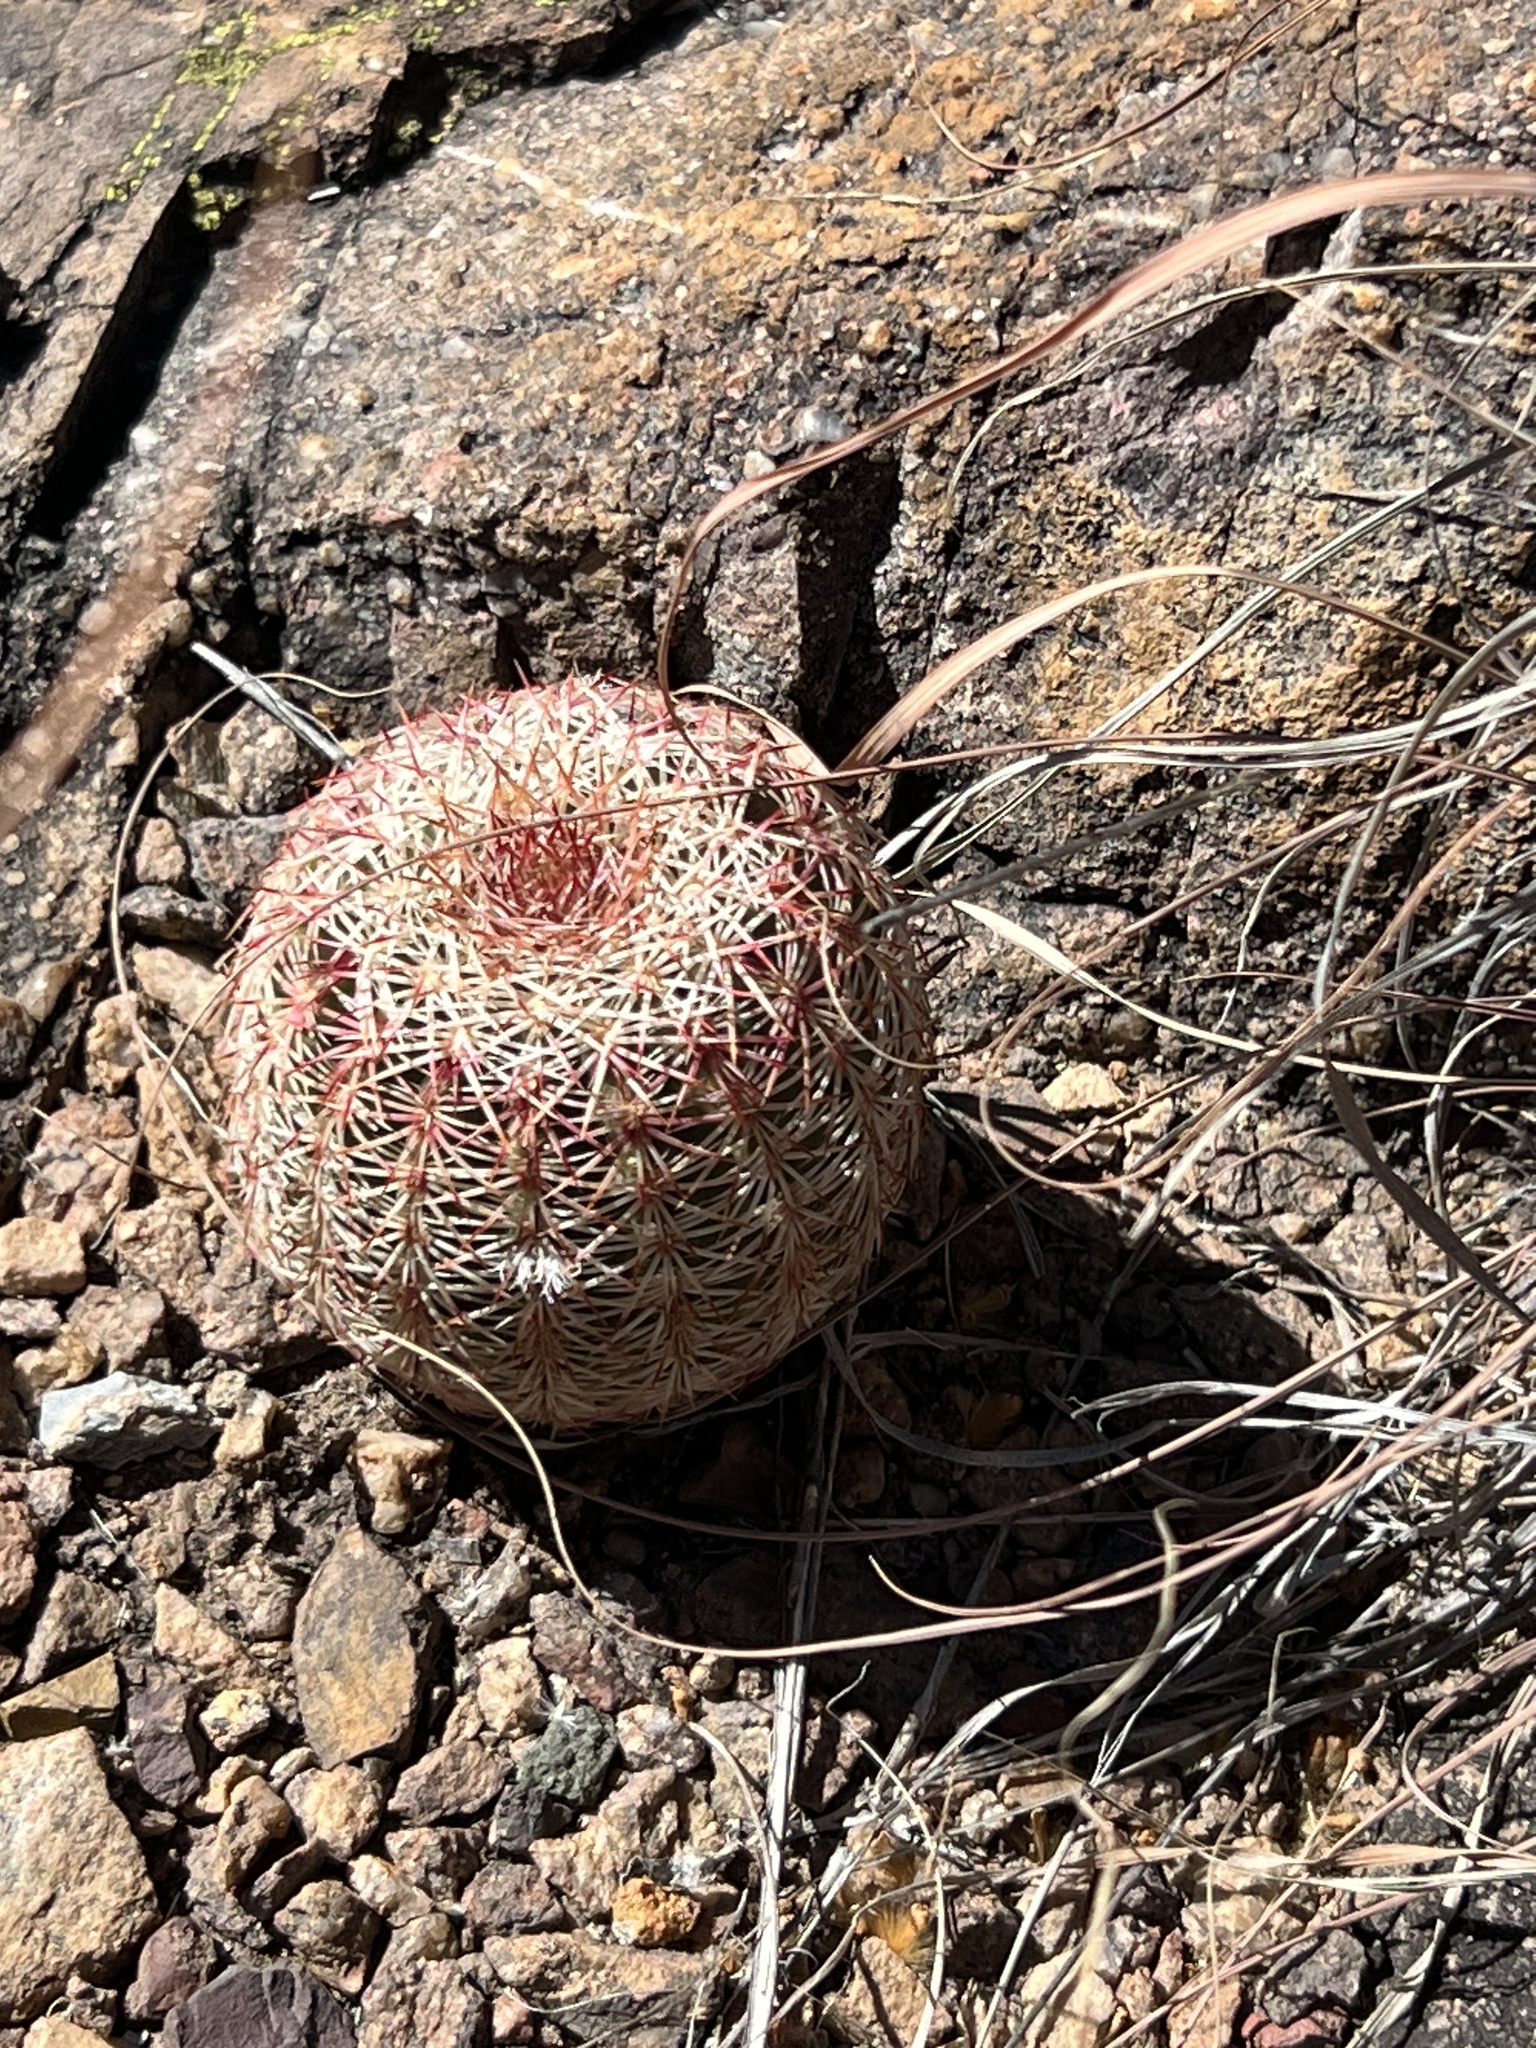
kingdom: Plantae
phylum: Tracheophyta
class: Magnoliopsida
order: Caryophyllales
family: Cactaceae
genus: Echinocereus
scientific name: Echinocereus rigidissimus
